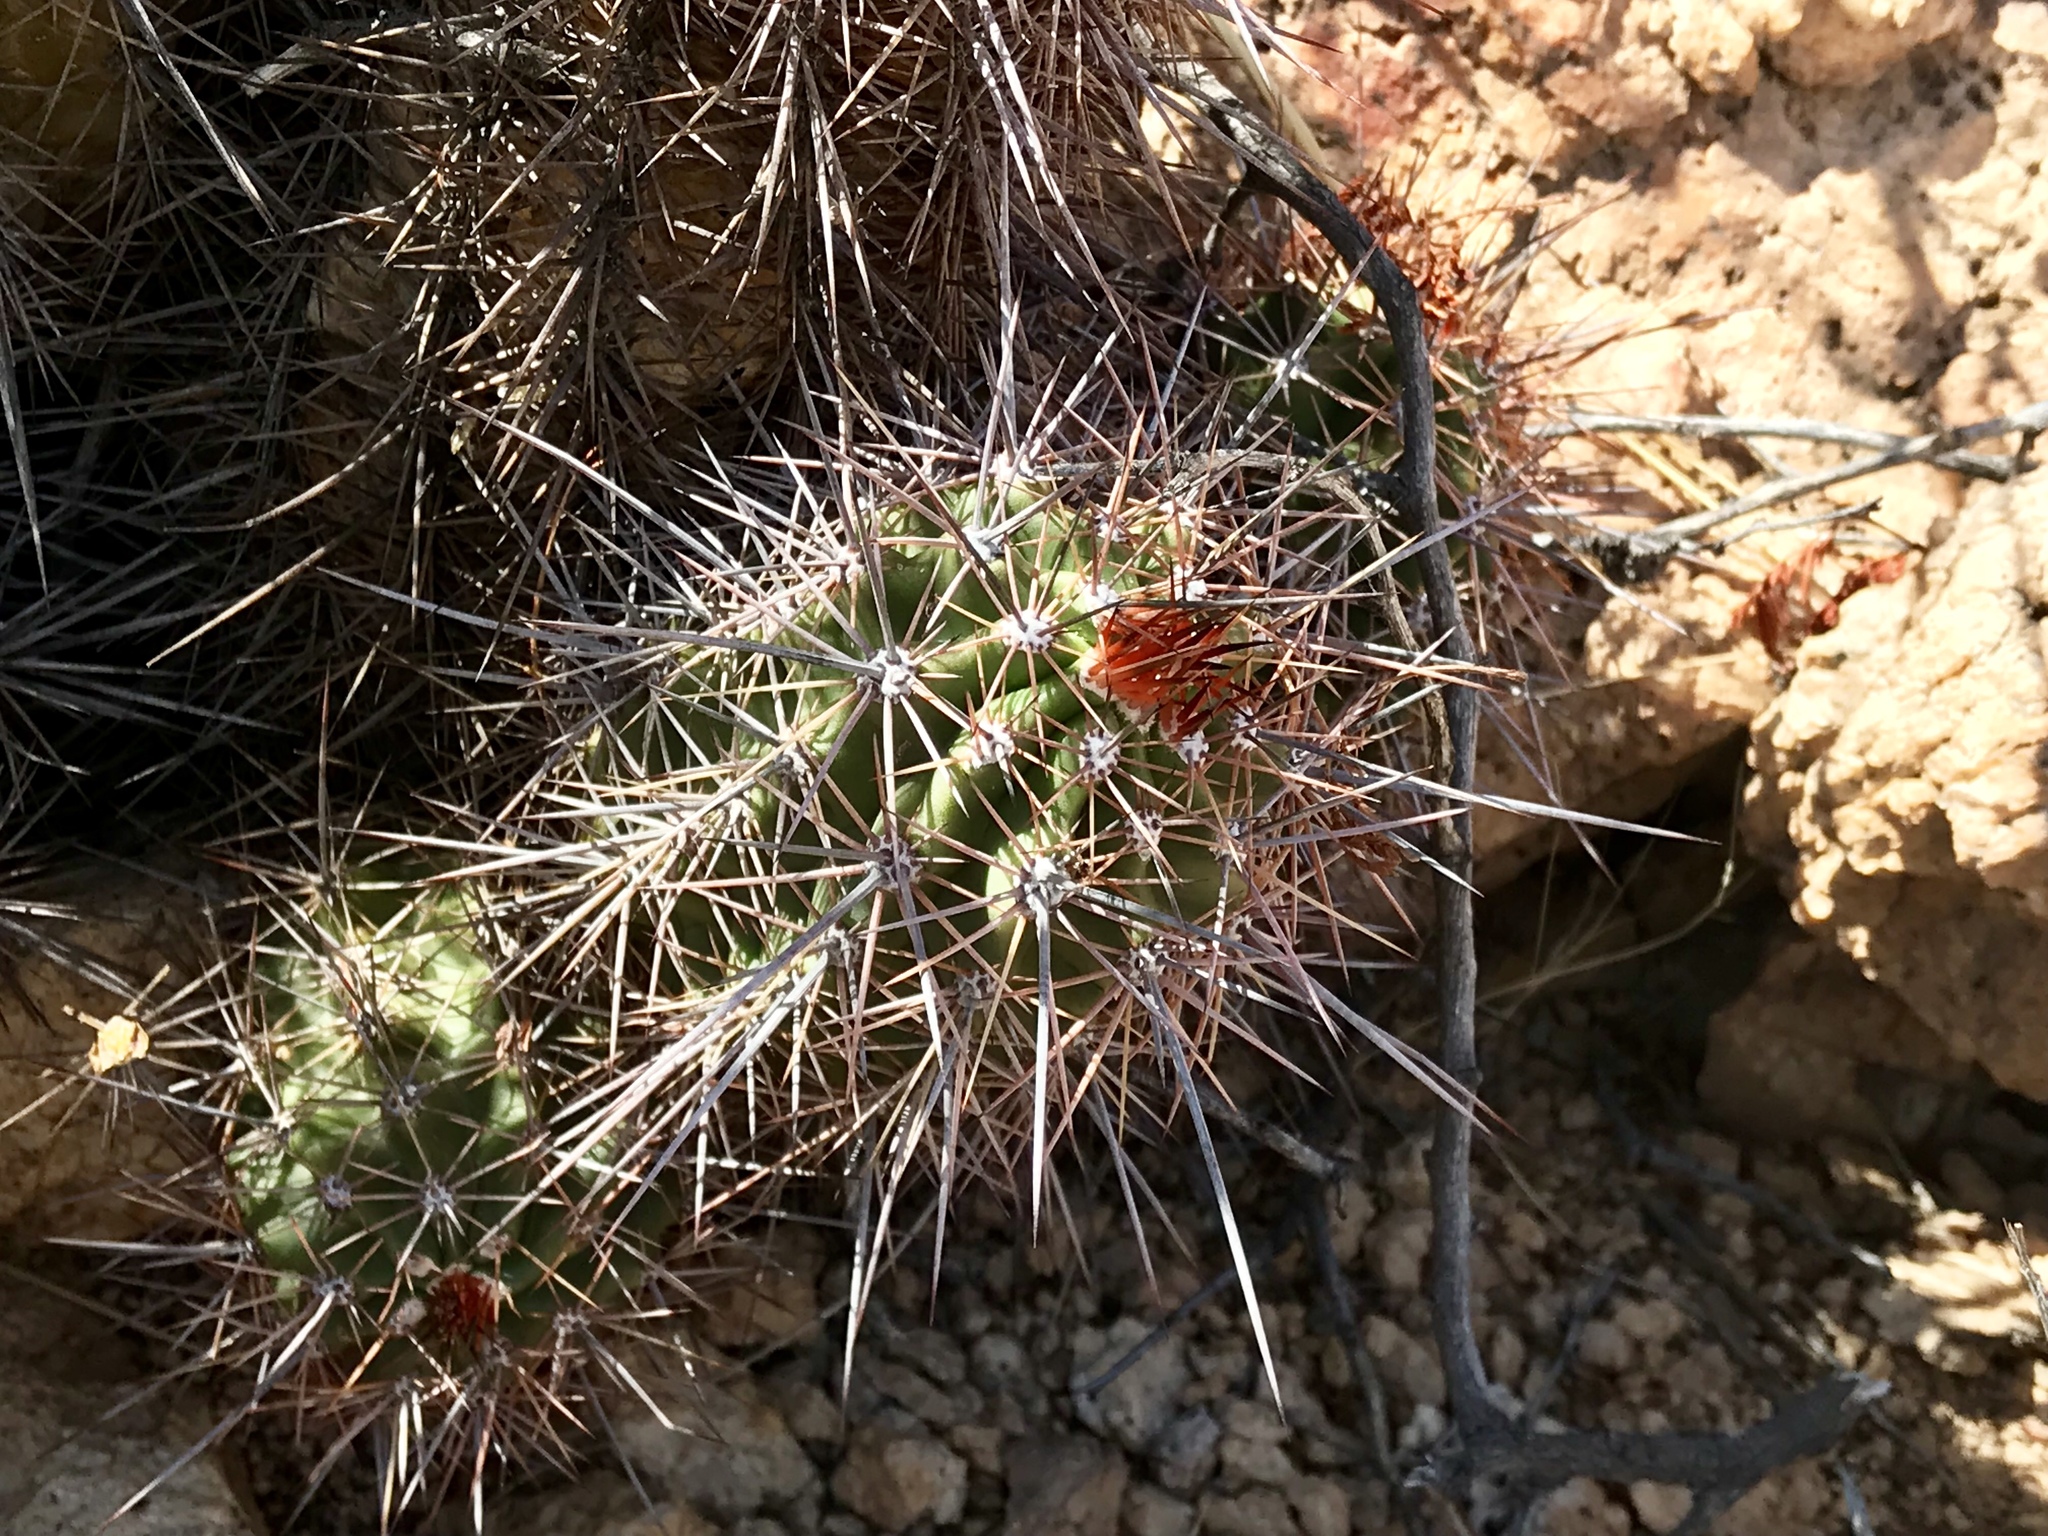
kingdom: Plantae
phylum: Tracheophyta
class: Magnoliopsida
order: Caryophyllales
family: Cactaceae
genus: Echinocereus
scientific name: Echinocereus arizonicus
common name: Arizona hedgehog cactus
